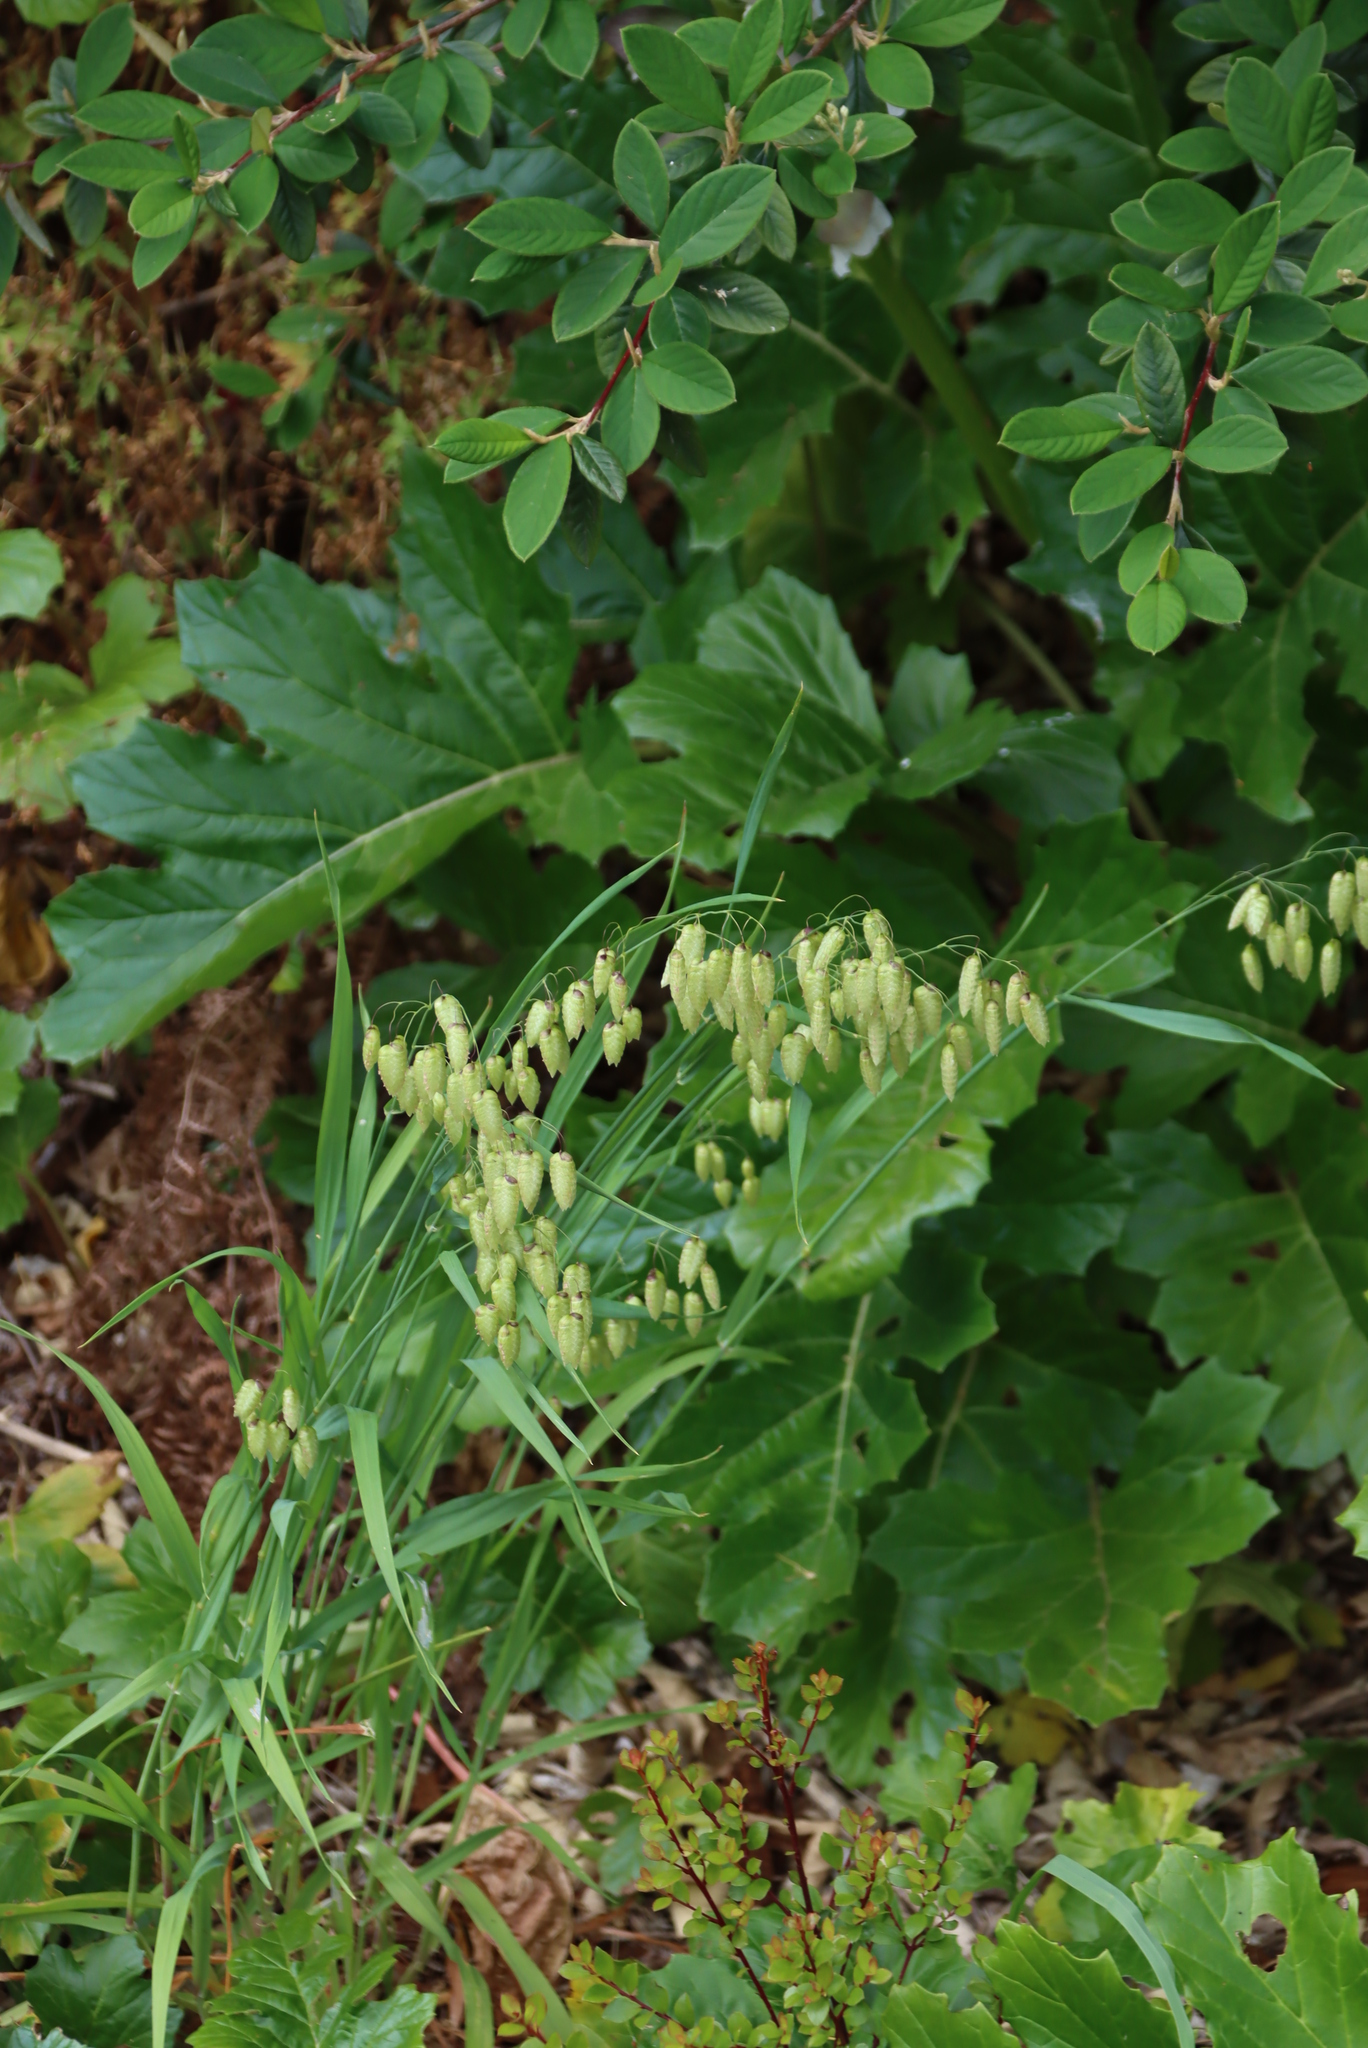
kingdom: Plantae
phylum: Tracheophyta
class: Liliopsida
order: Poales
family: Poaceae
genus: Briza
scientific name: Briza maxima
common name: Big quakinggrass
